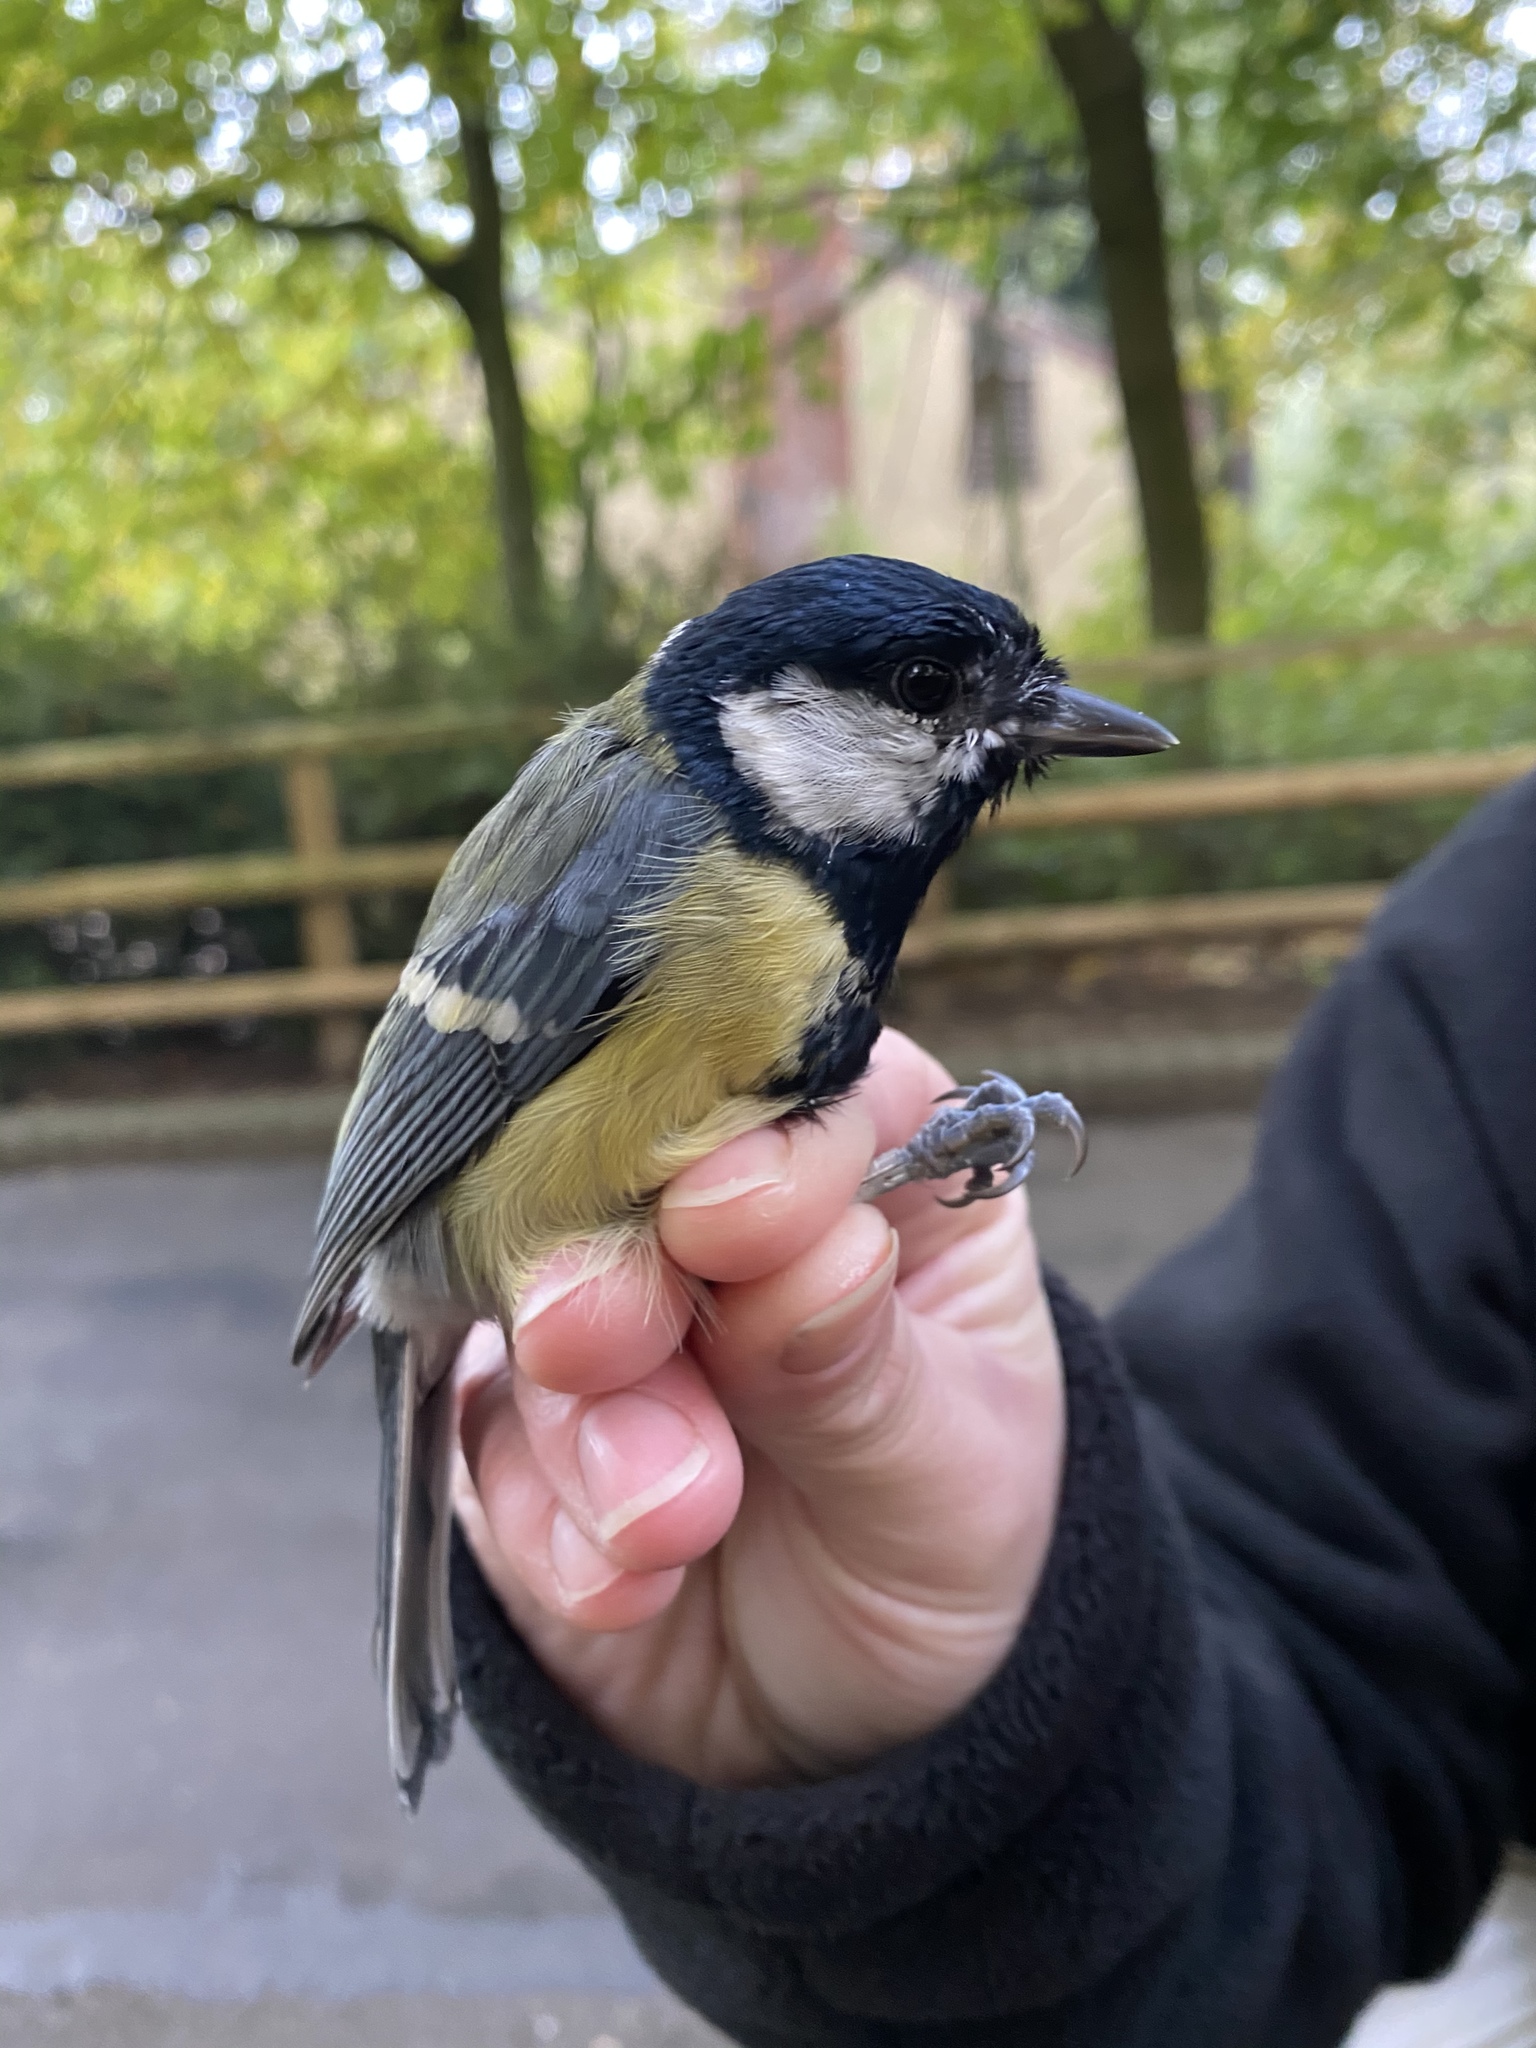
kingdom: Animalia
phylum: Chordata
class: Aves
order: Passeriformes
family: Paridae
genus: Parus
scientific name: Parus major
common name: Great tit
